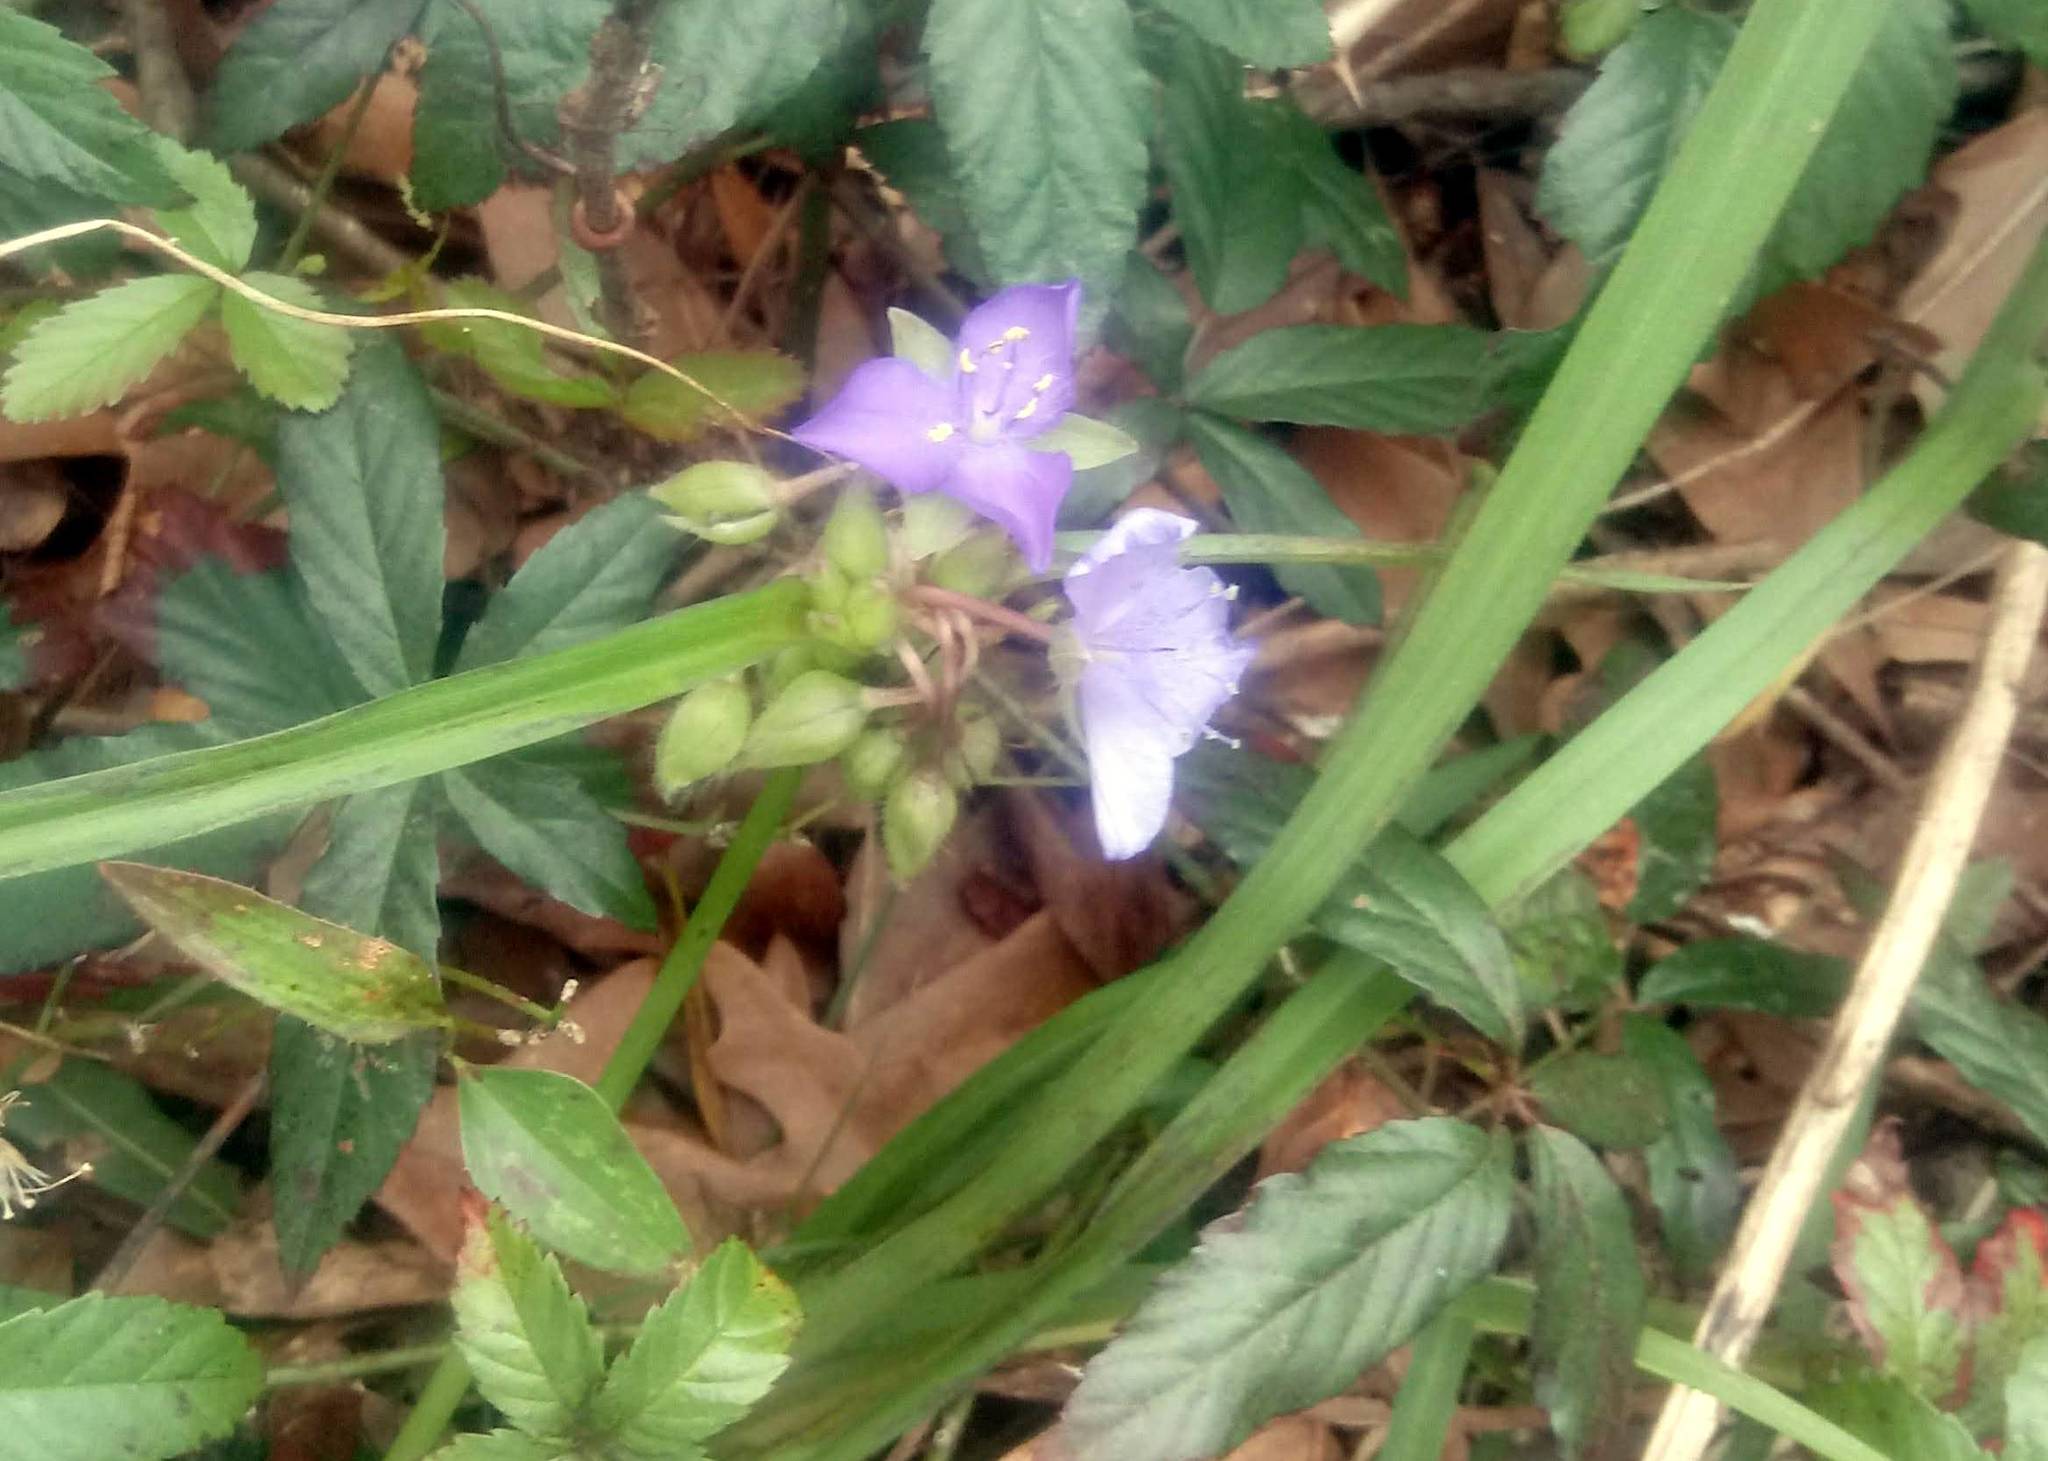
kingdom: Plantae
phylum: Tracheophyta
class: Liliopsida
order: Commelinales
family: Commelinaceae
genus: Tradescantia
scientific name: Tradescantia ohiensis
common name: Ohio spiderwort
